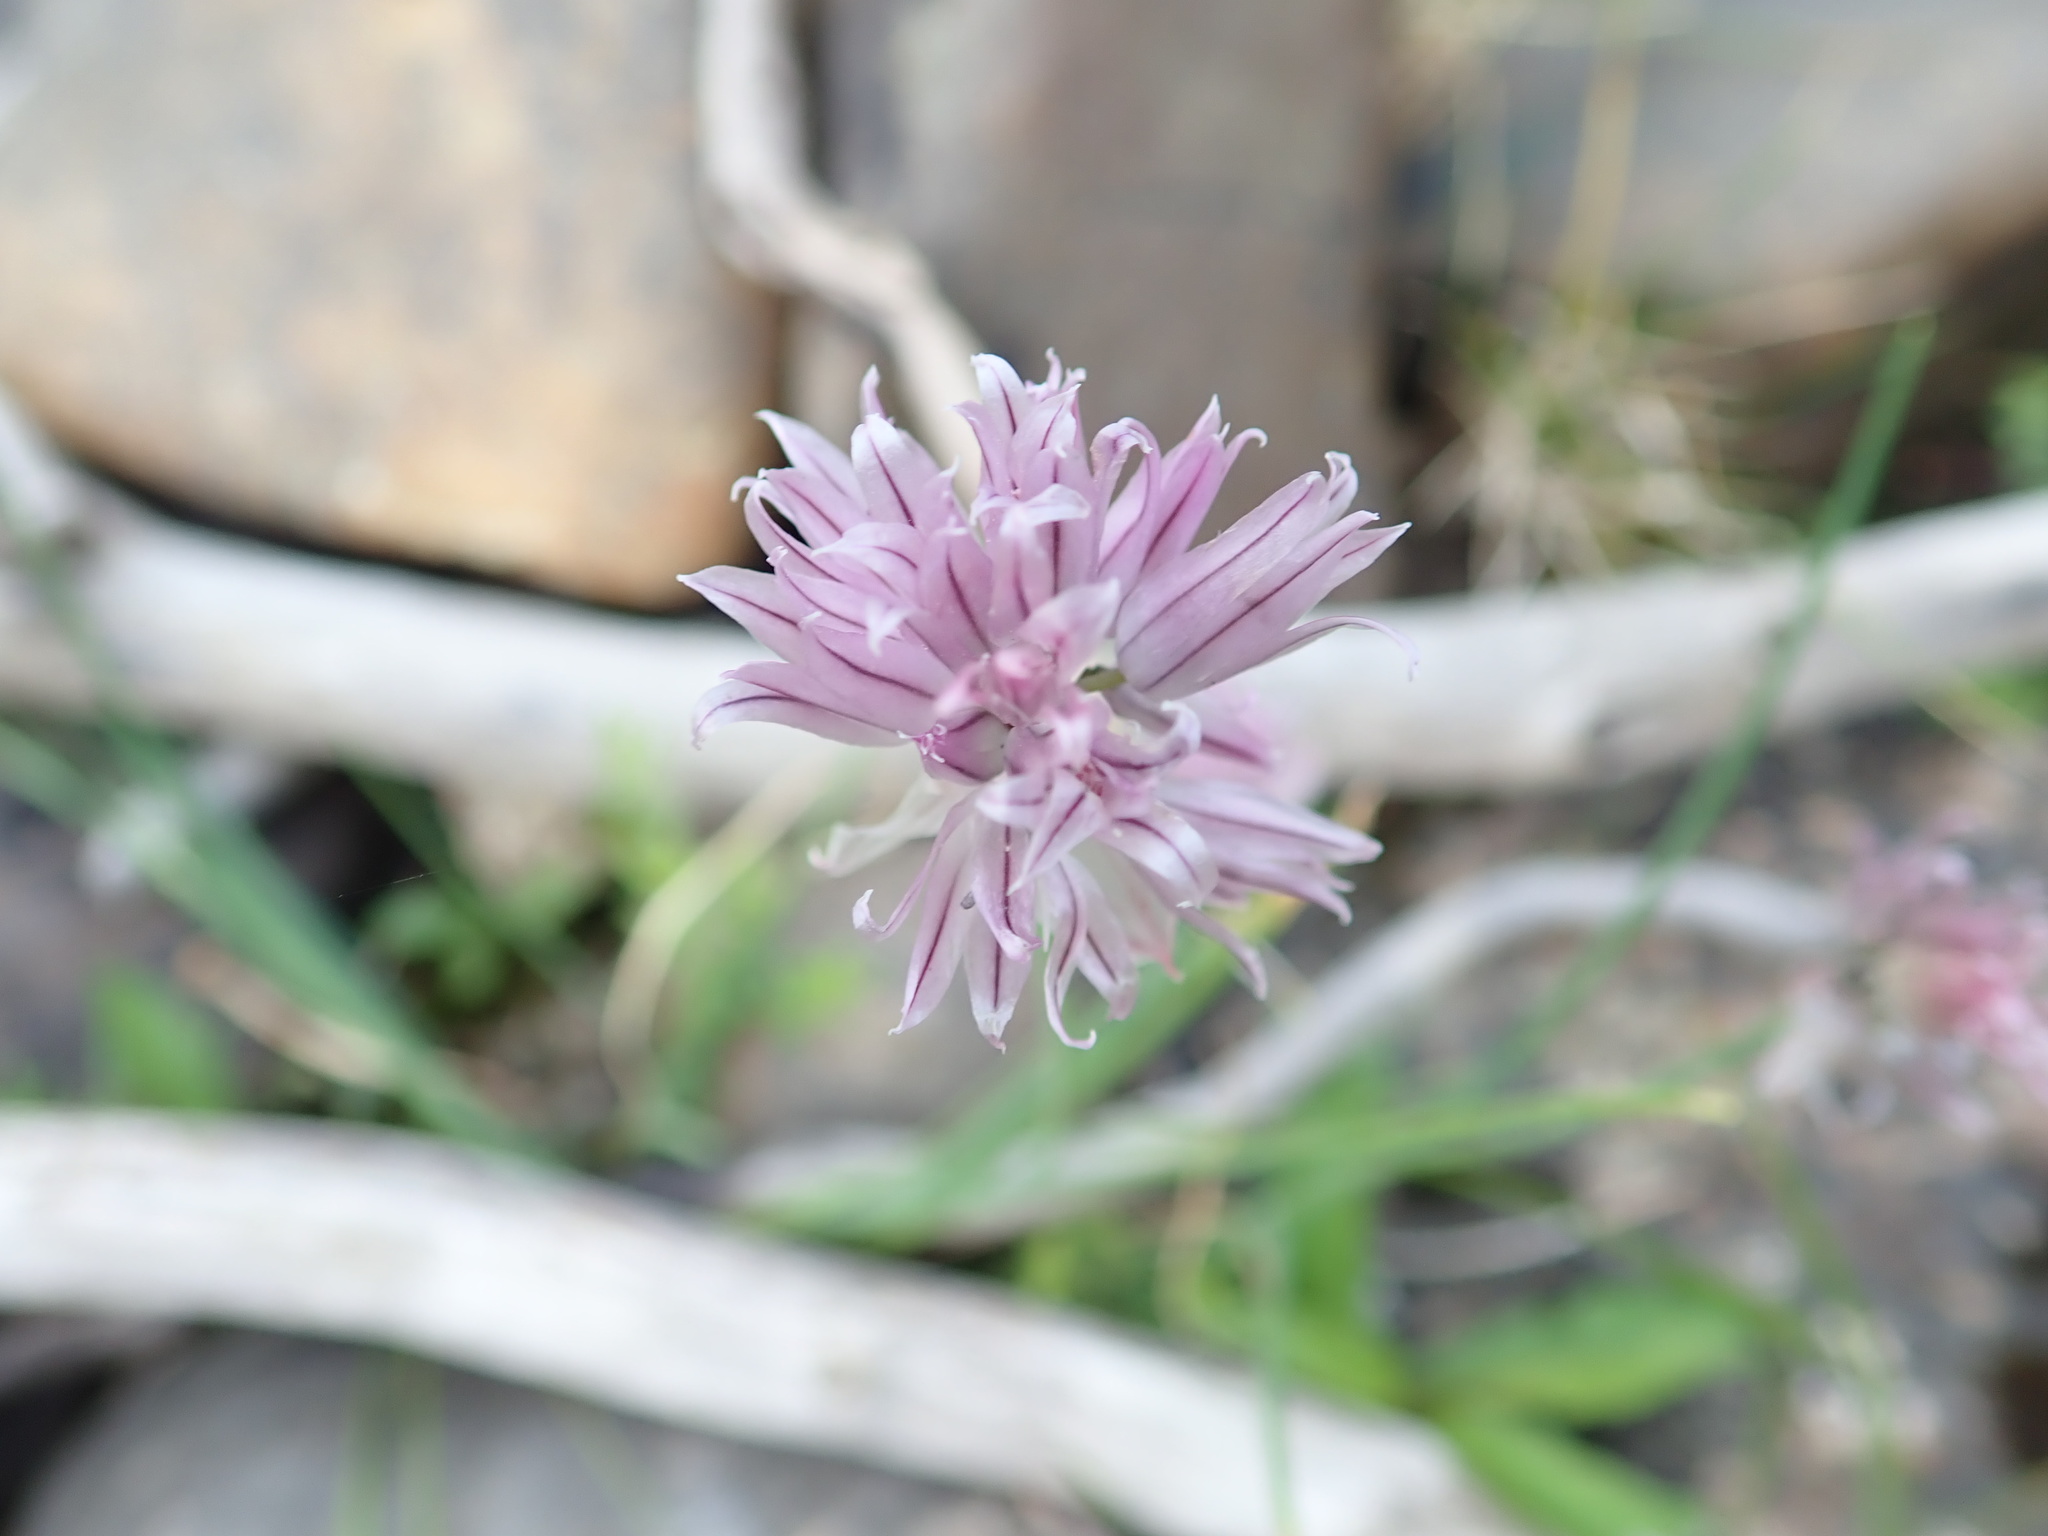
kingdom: Plantae
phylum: Tracheophyta
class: Liliopsida
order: Asparagales
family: Amaryllidaceae
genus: Allium
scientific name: Allium schoenoprasum
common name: Chives
